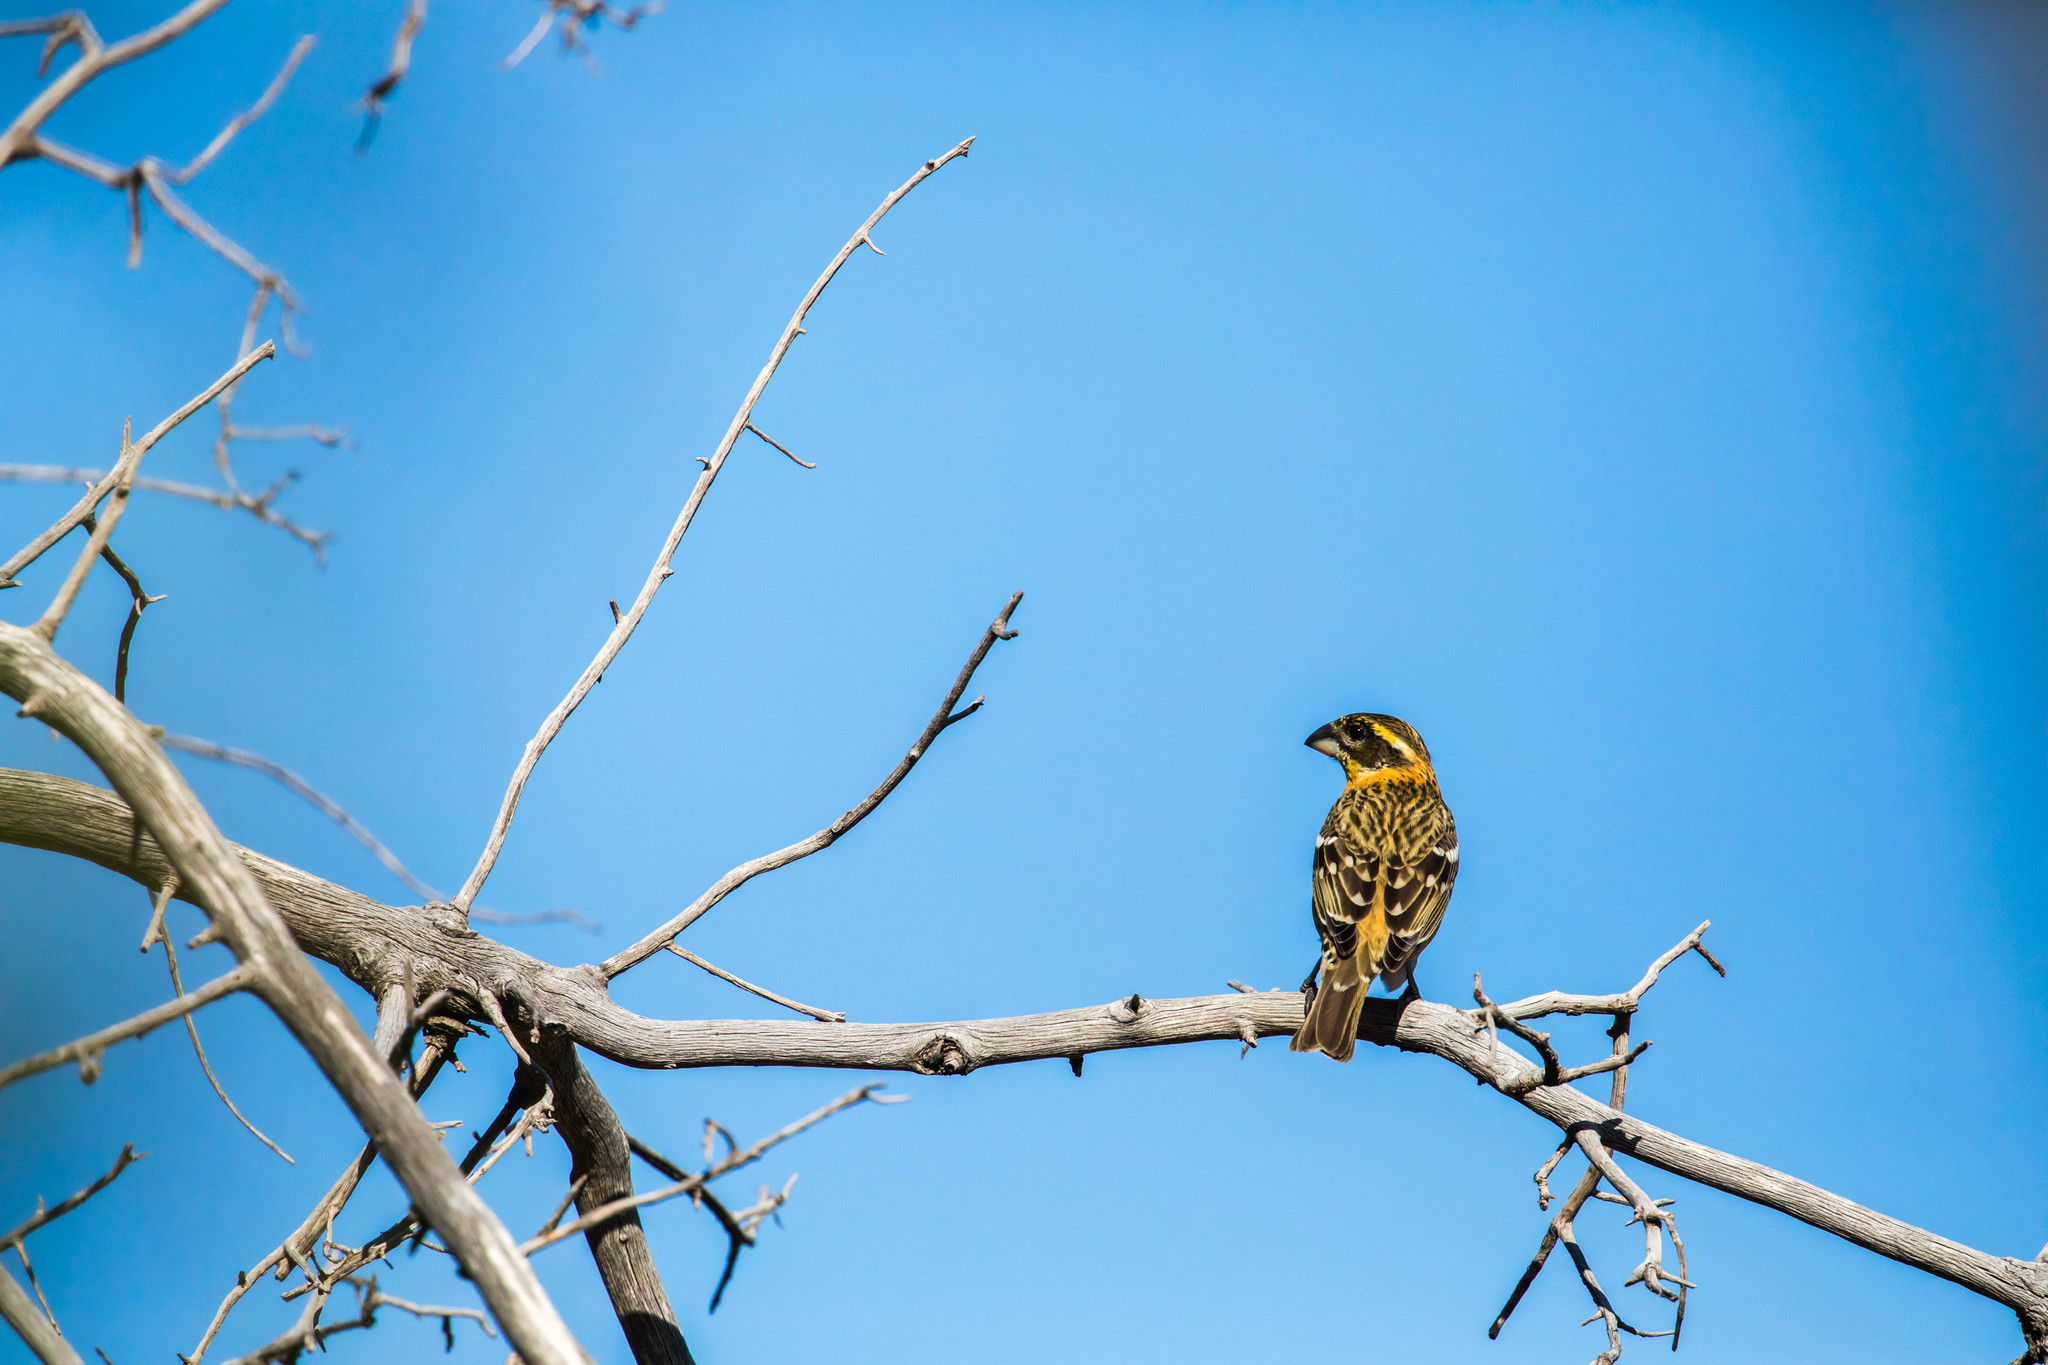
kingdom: Animalia
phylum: Chordata
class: Aves
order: Passeriformes
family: Cardinalidae
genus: Pheucticus
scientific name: Pheucticus melanocephalus
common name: Black-headed grosbeak
